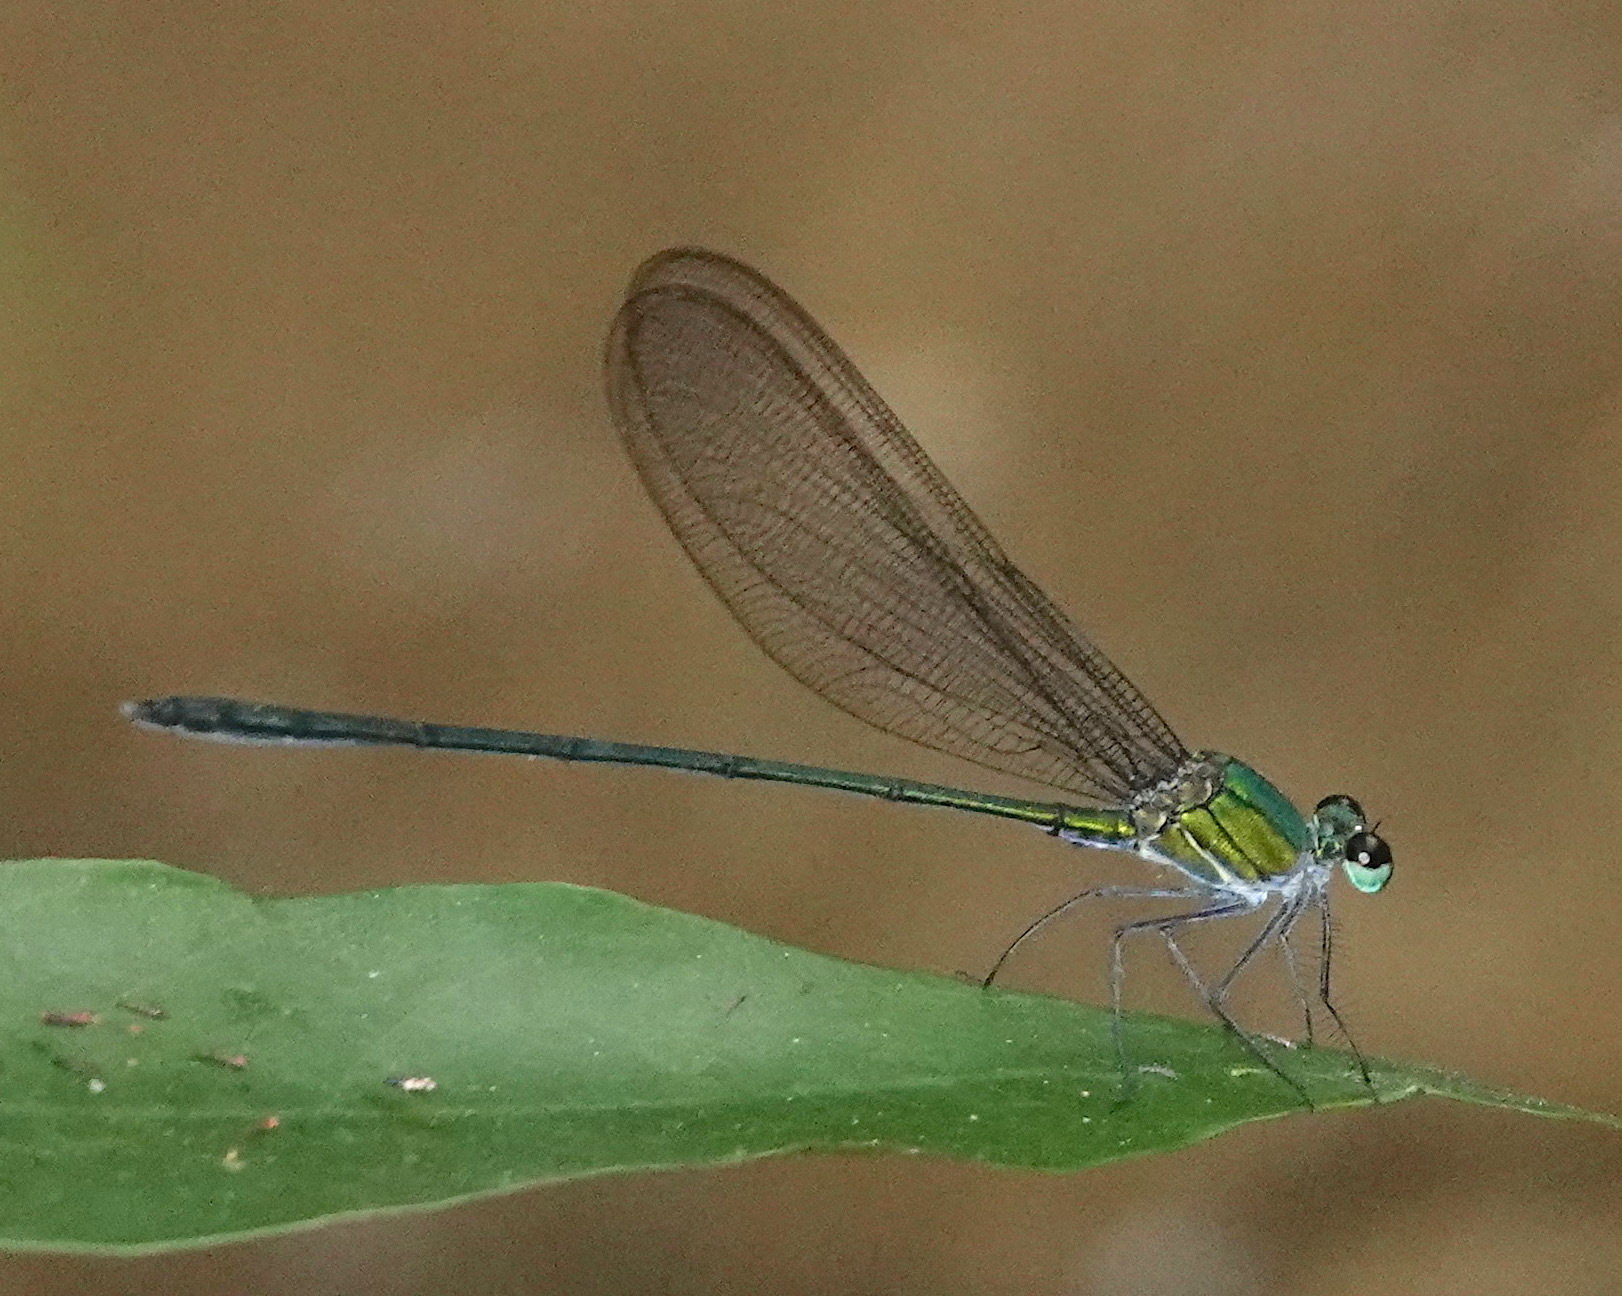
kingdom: Animalia
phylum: Arthropoda
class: Insecta
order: Odonata
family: Calopterygidae
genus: Vestalis
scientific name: Vestalis gracilis
